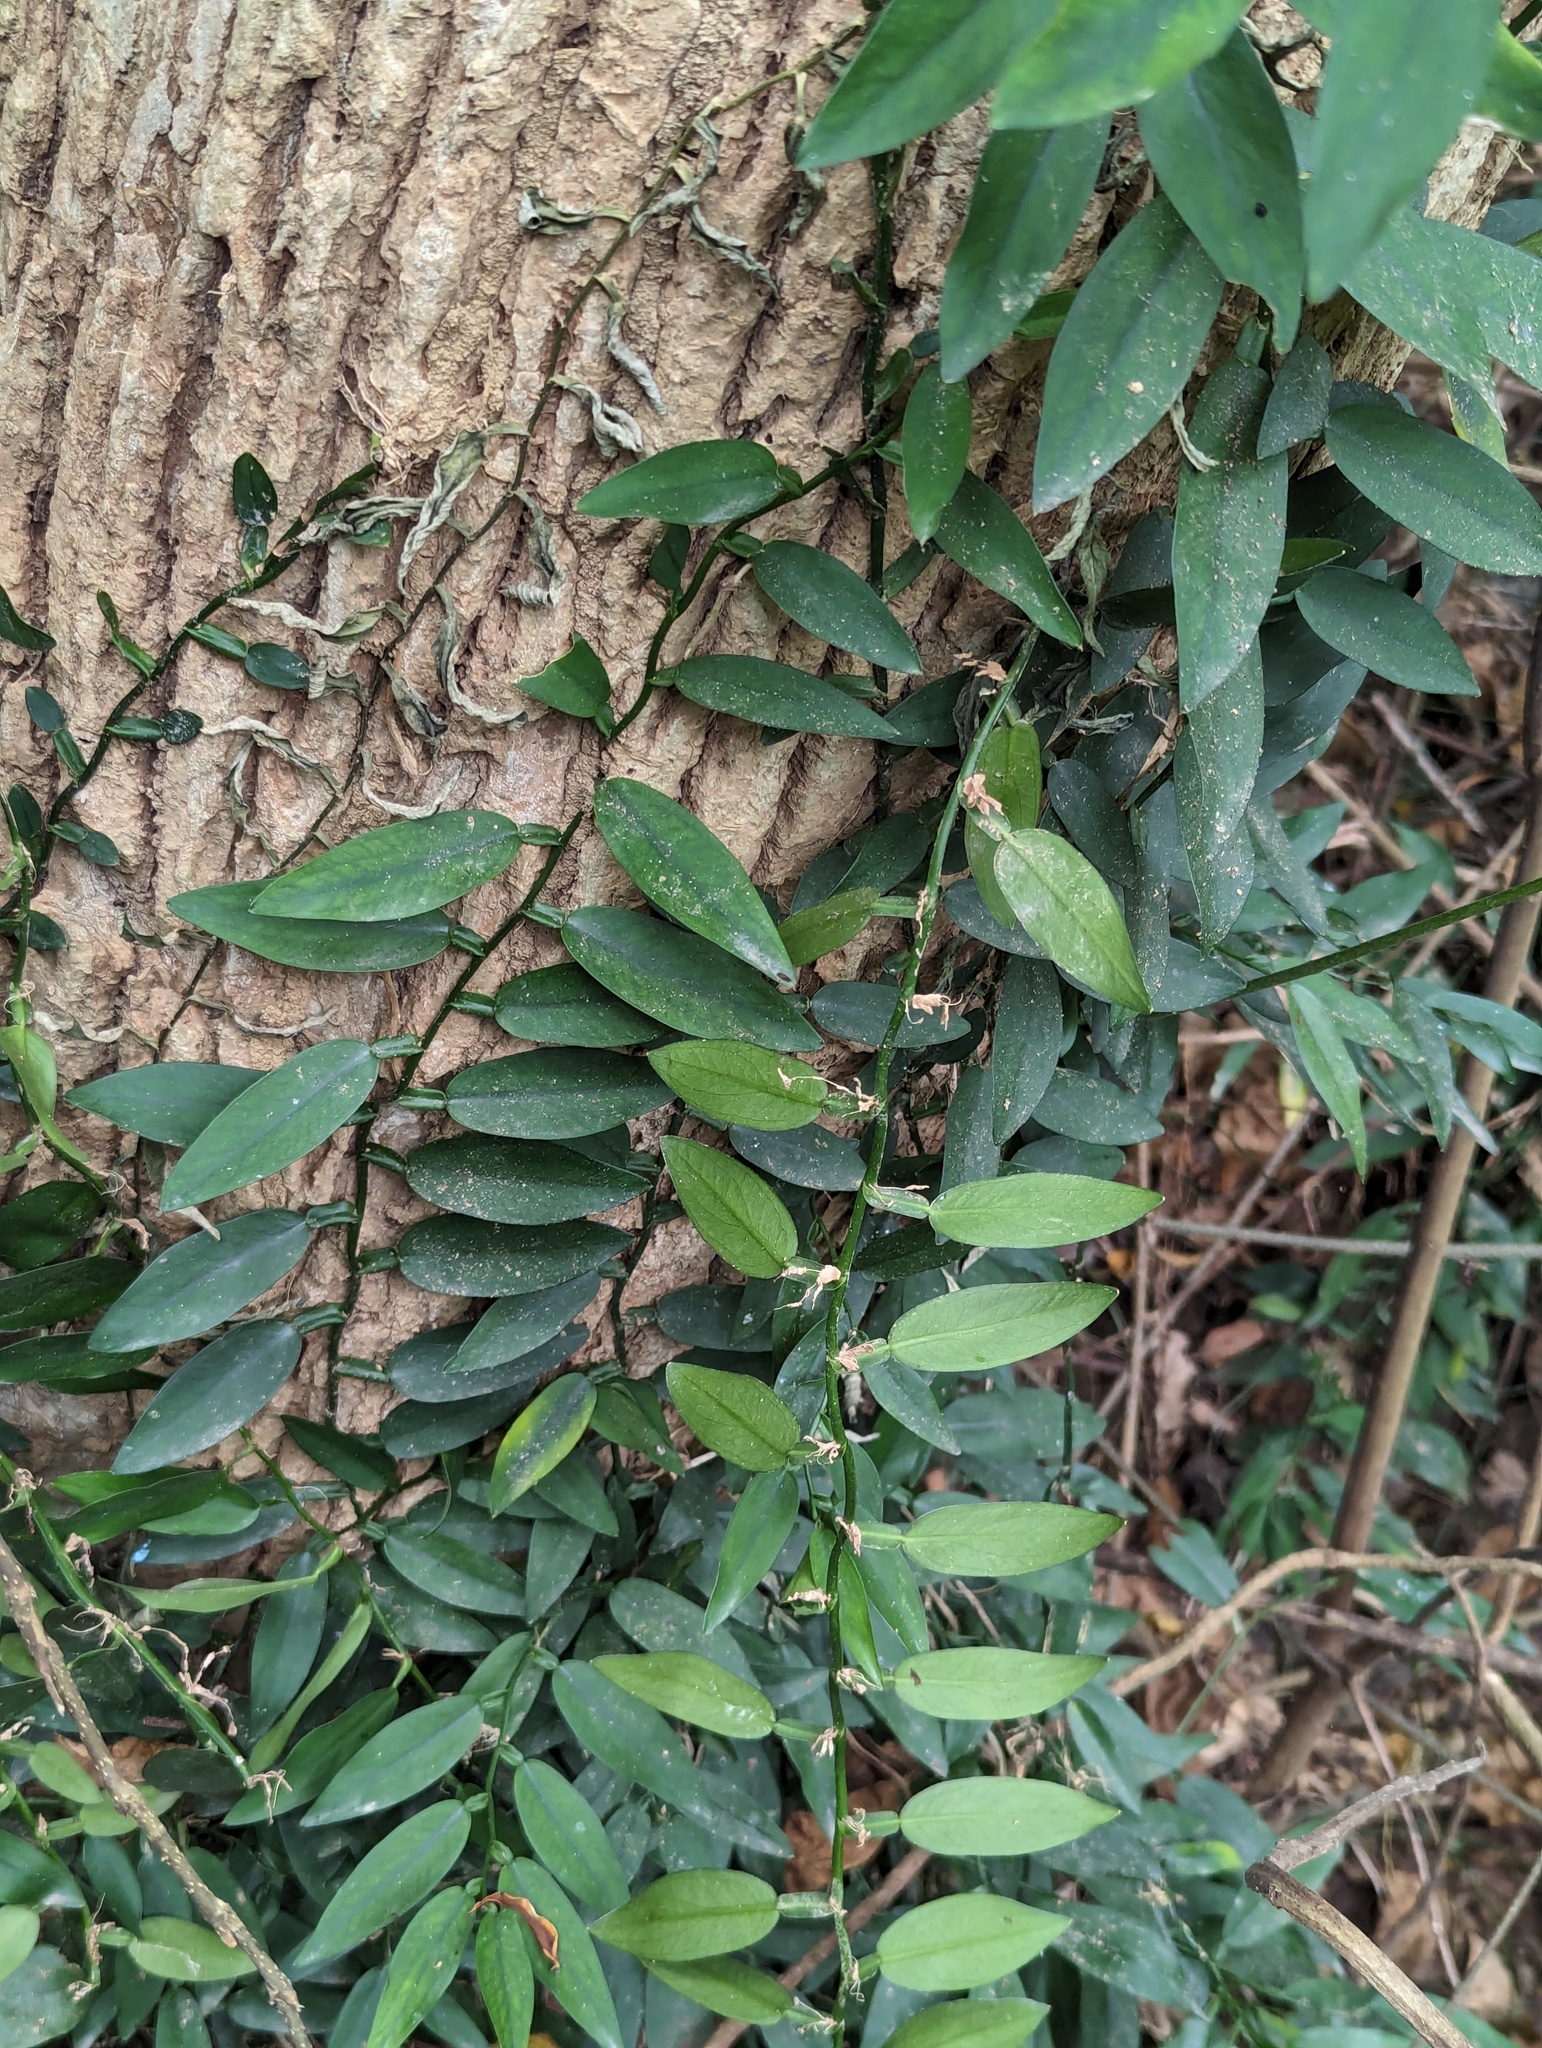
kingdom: Plantae
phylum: Tracheophyta
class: Liliopsida
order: Alismatales
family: Araceae
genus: Pothos
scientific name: Pothos chinensis
